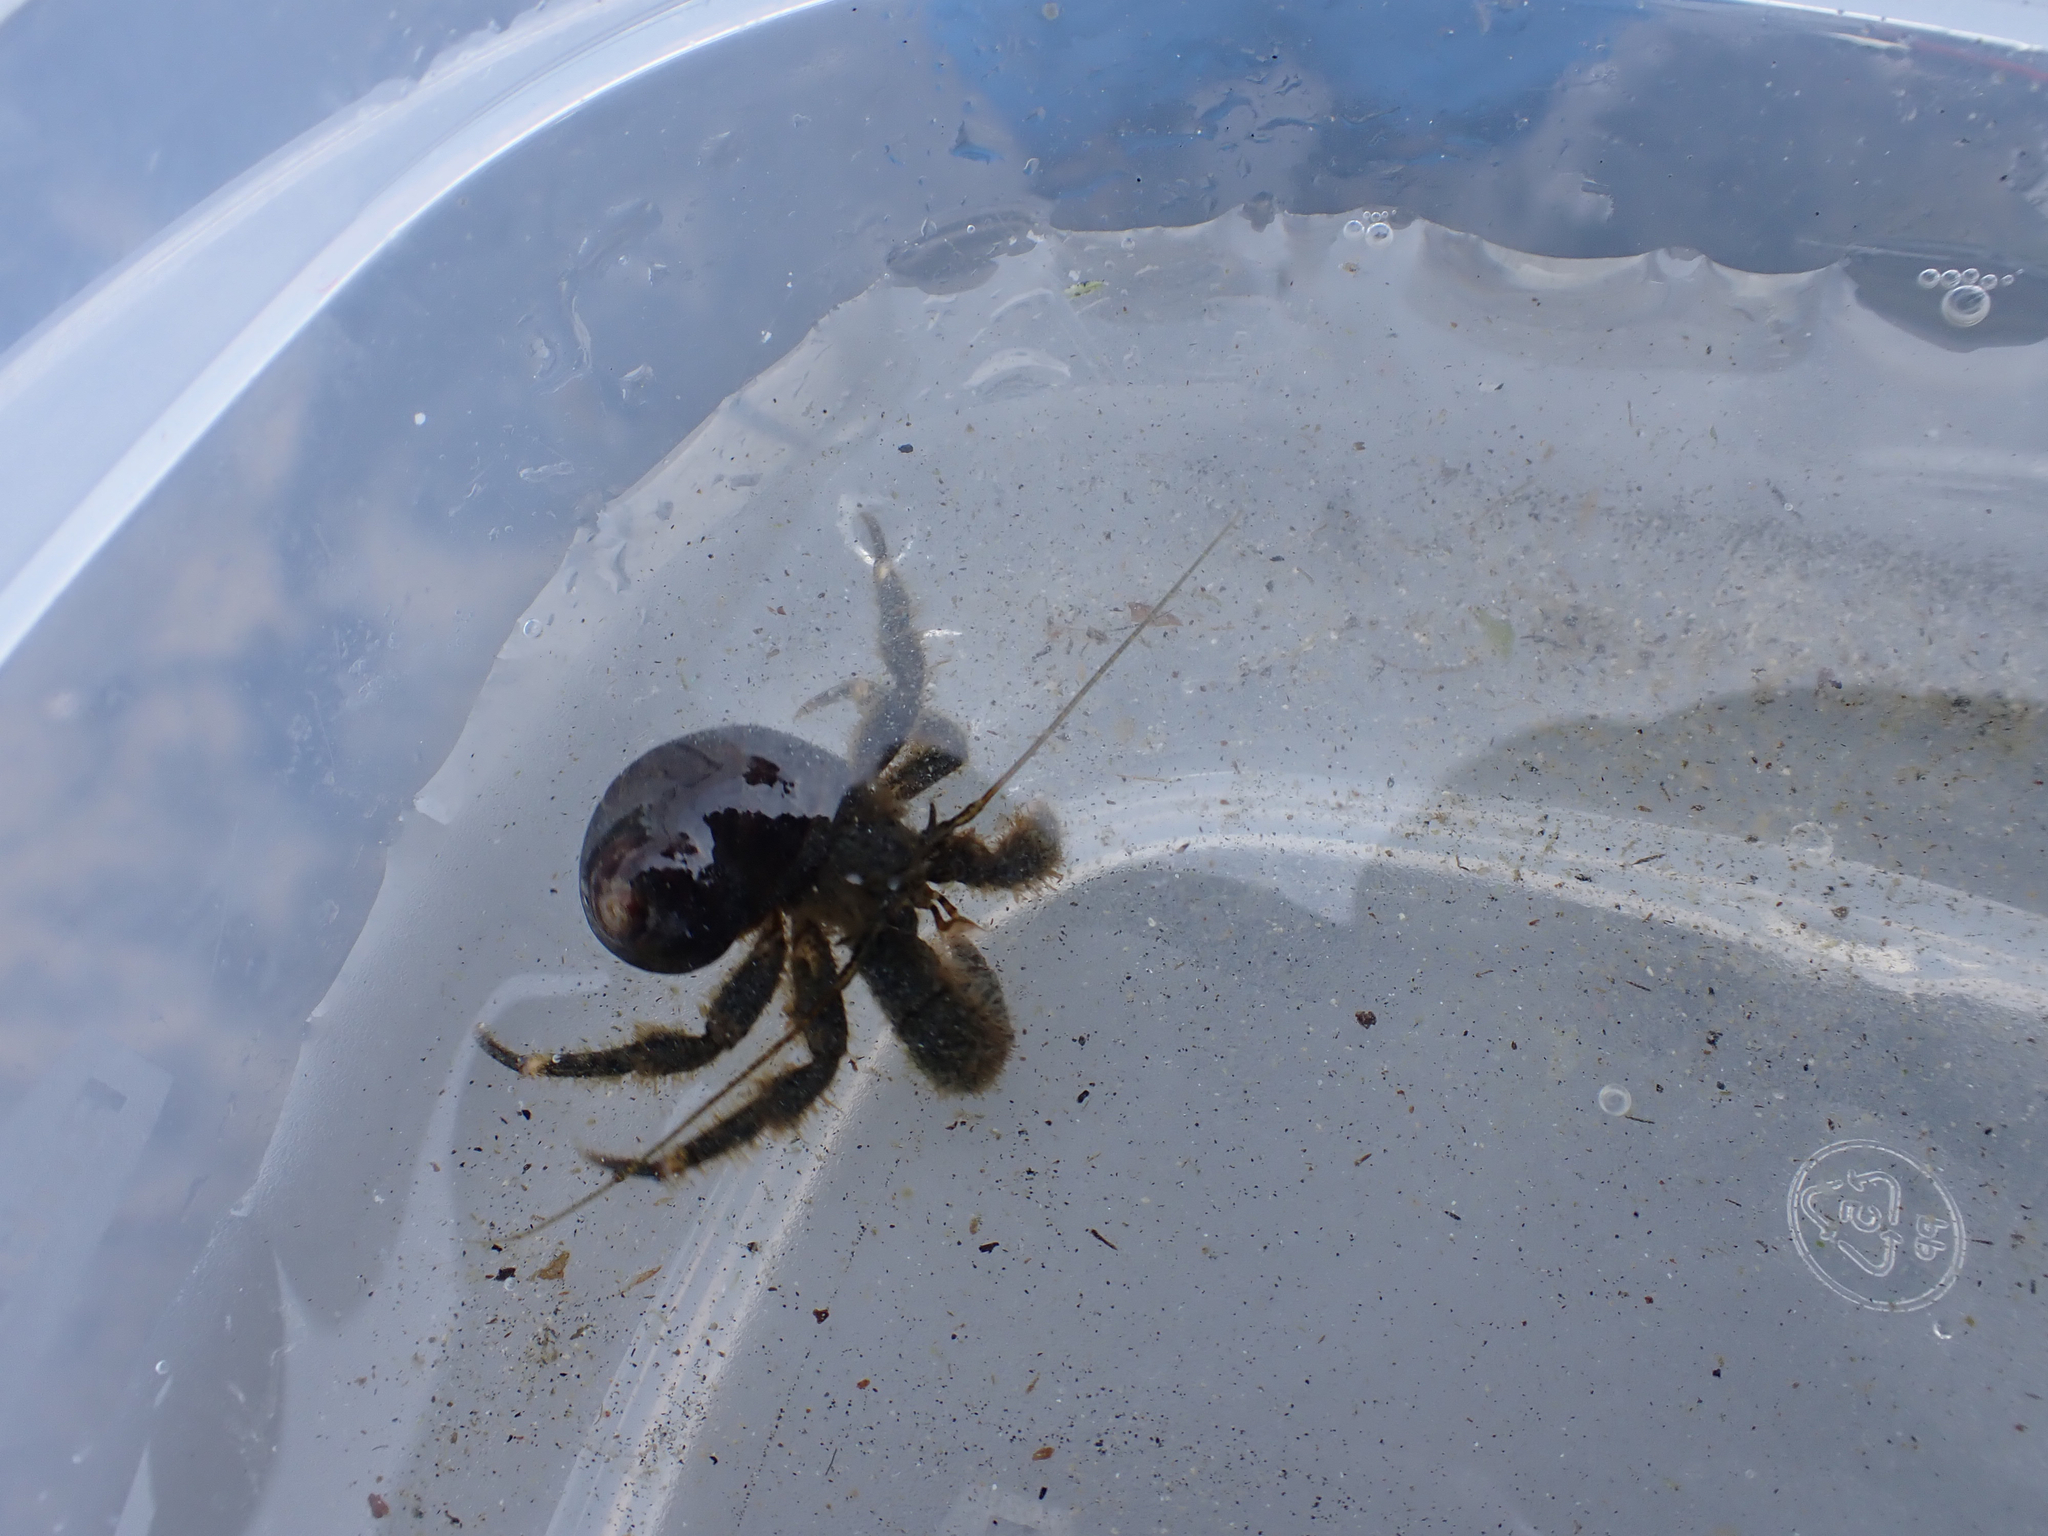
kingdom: Animalia
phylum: Arthropoda
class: Malacostraca
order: Decapoda
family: Paguridae
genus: Pagurus
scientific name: Pagurus hirsutiusculus
